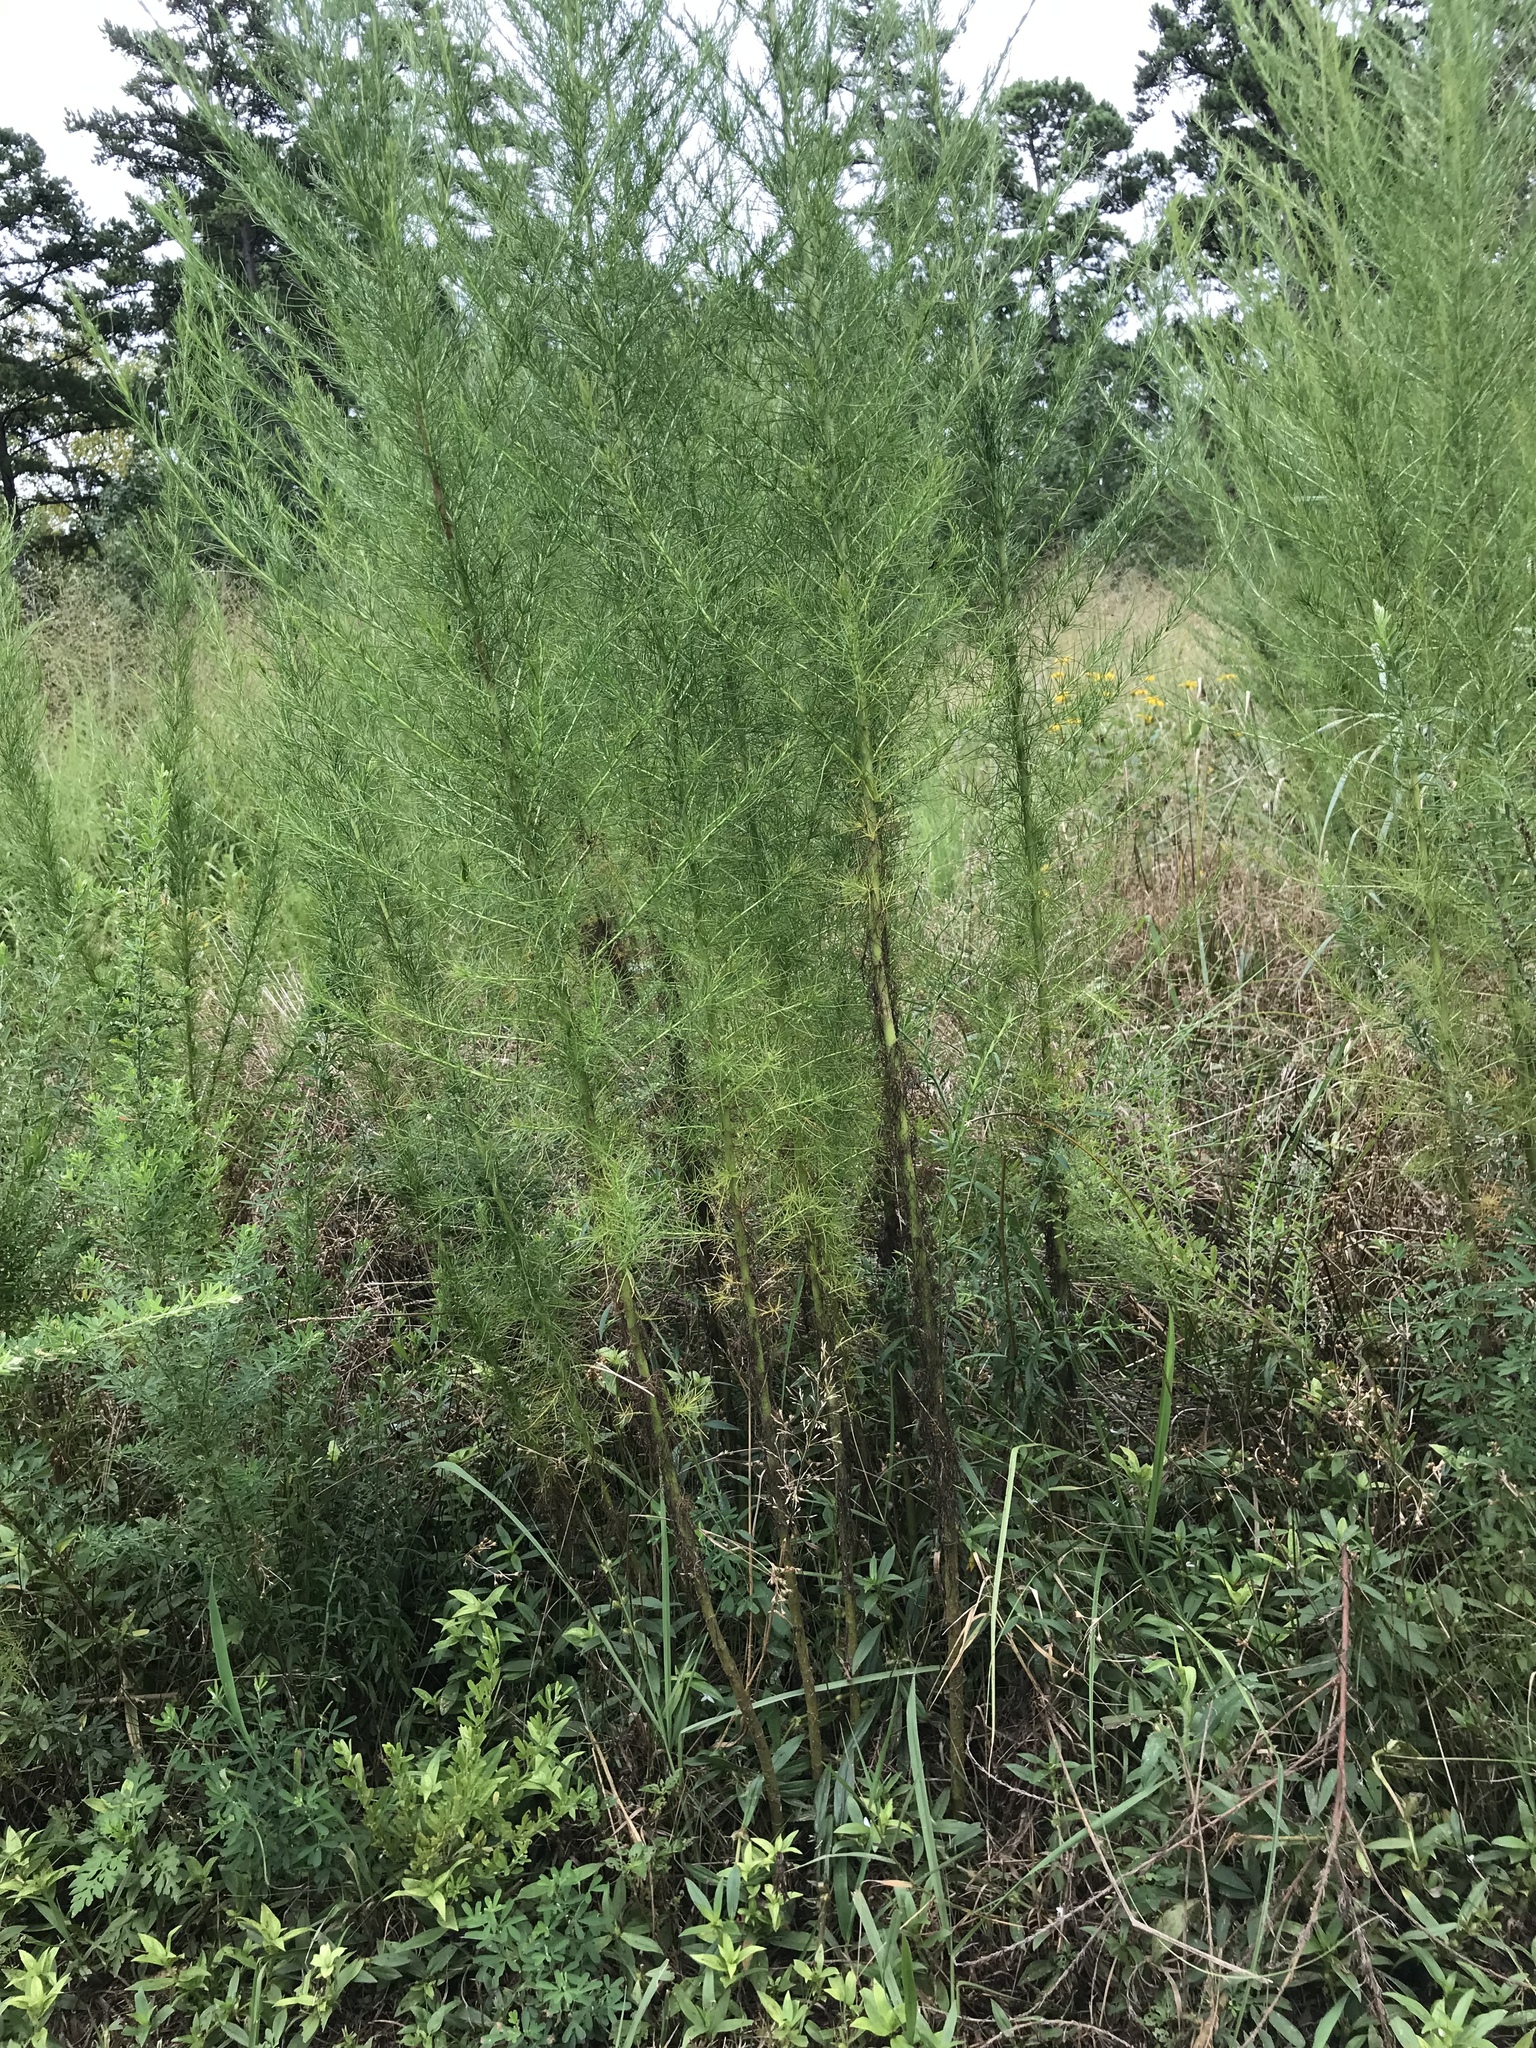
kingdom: Plantae
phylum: Tracheophyta
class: Magnoliopsida
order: Asterales
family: Asteraceae
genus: Eupatorium
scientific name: Eupatorium capillifolium
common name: Dog-fennel
